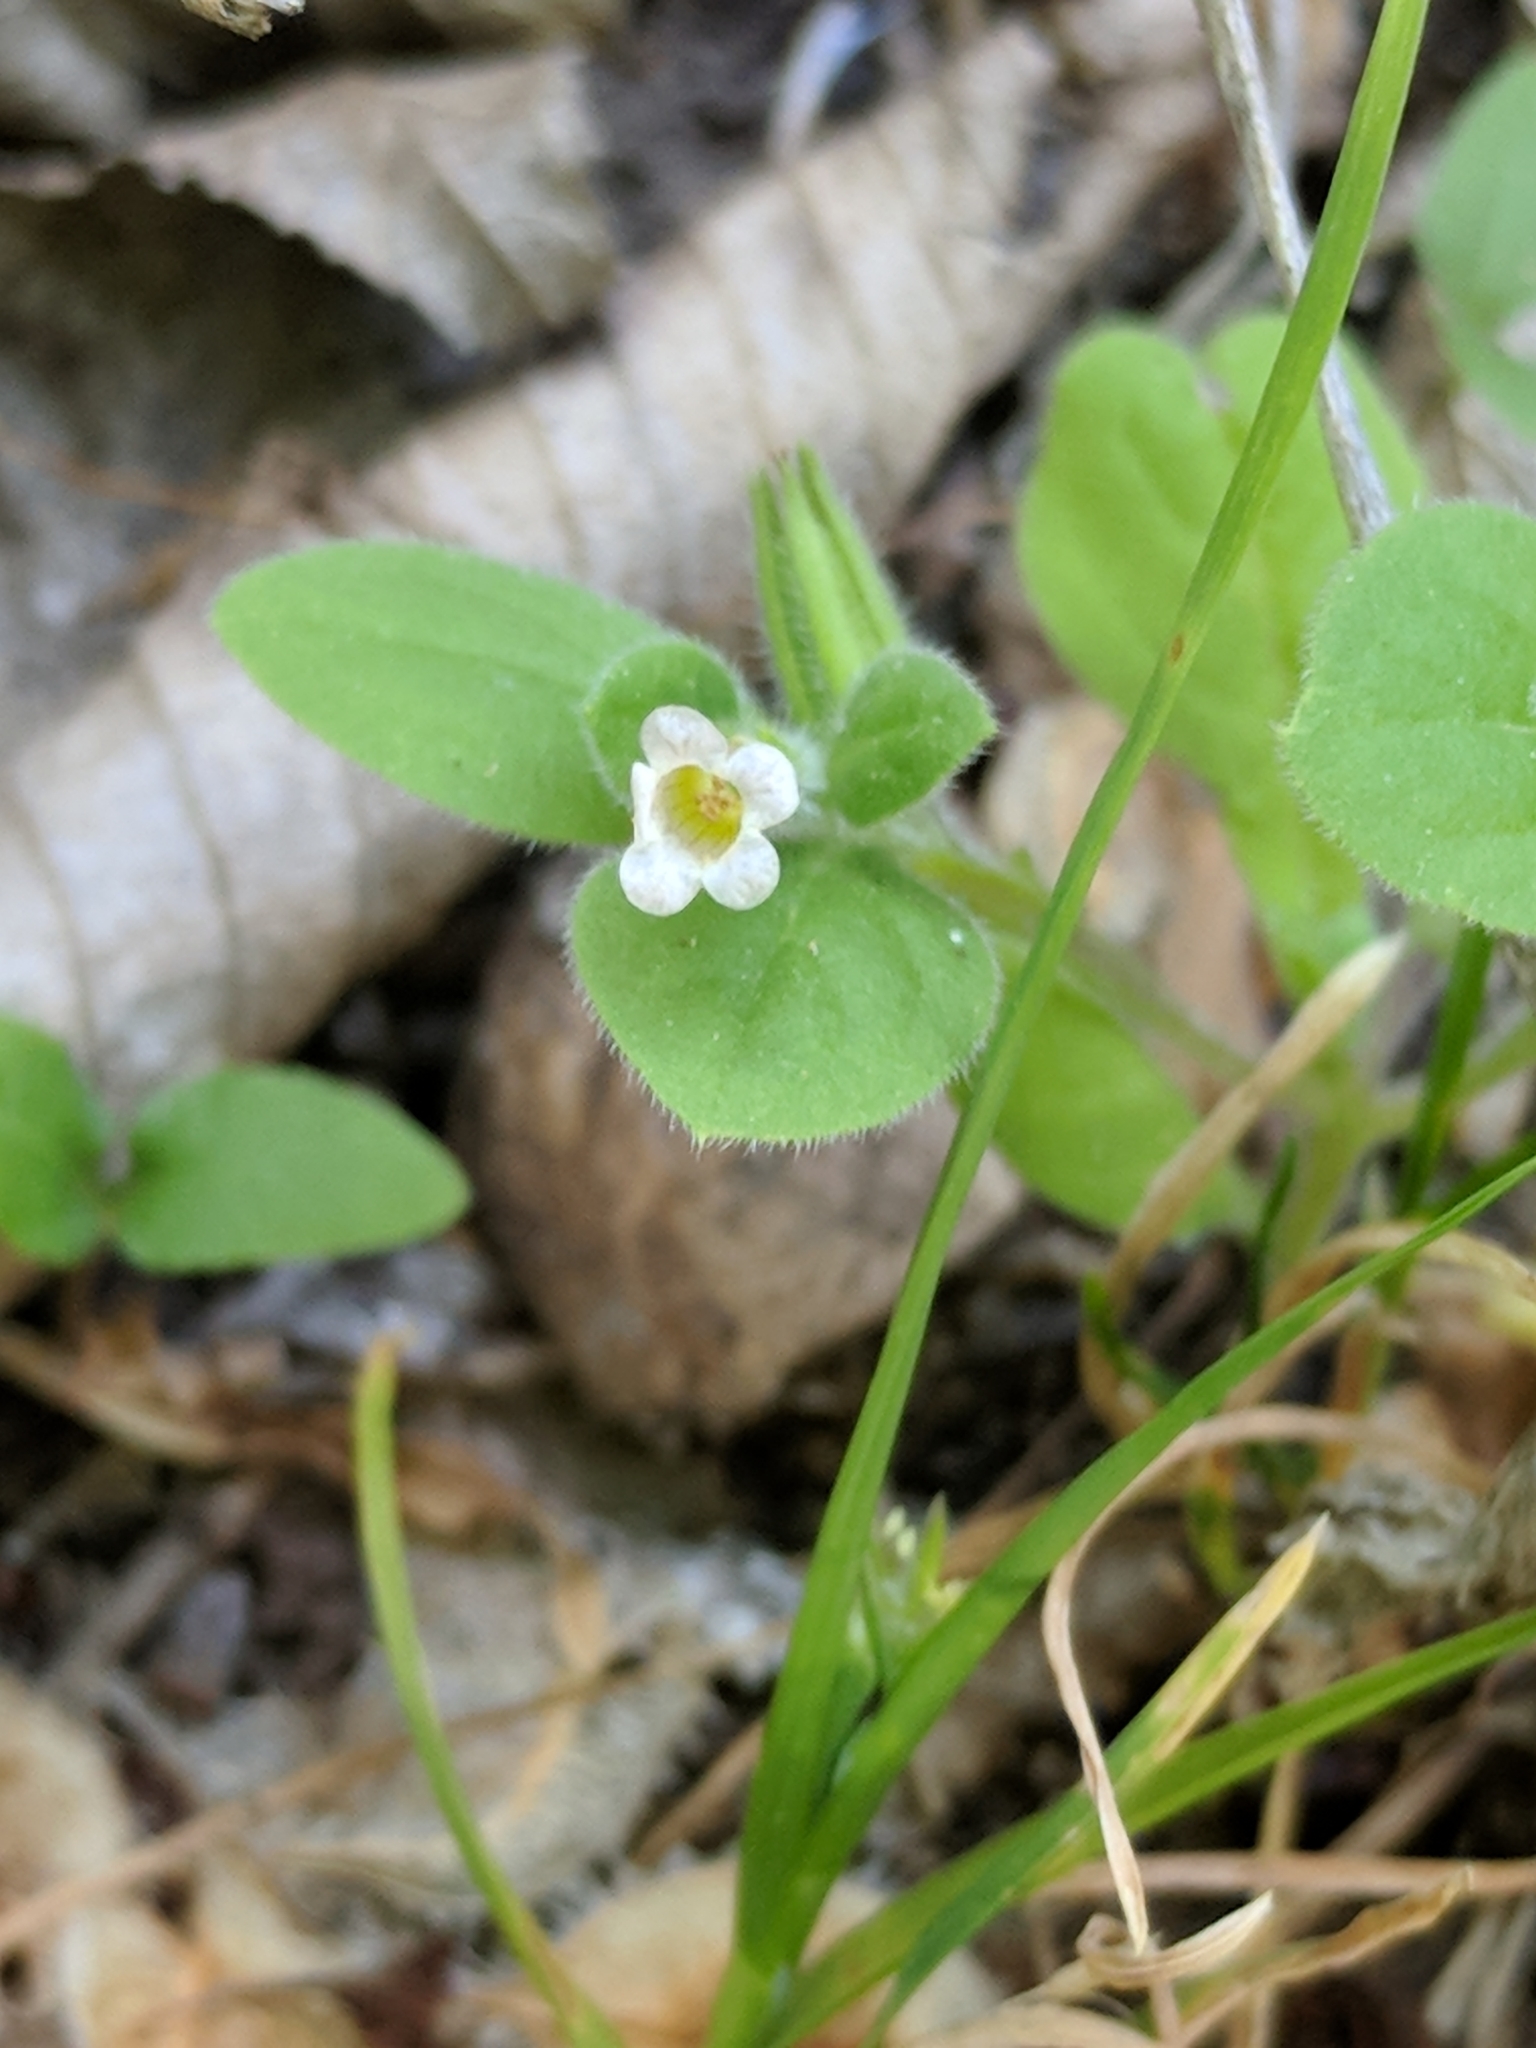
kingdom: Plantae
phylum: Tracheophyta
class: Magnoliopsida
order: Boraginales
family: Namaceae
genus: Nama
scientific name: Nama jamaicensis
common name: Jamaicanweed
